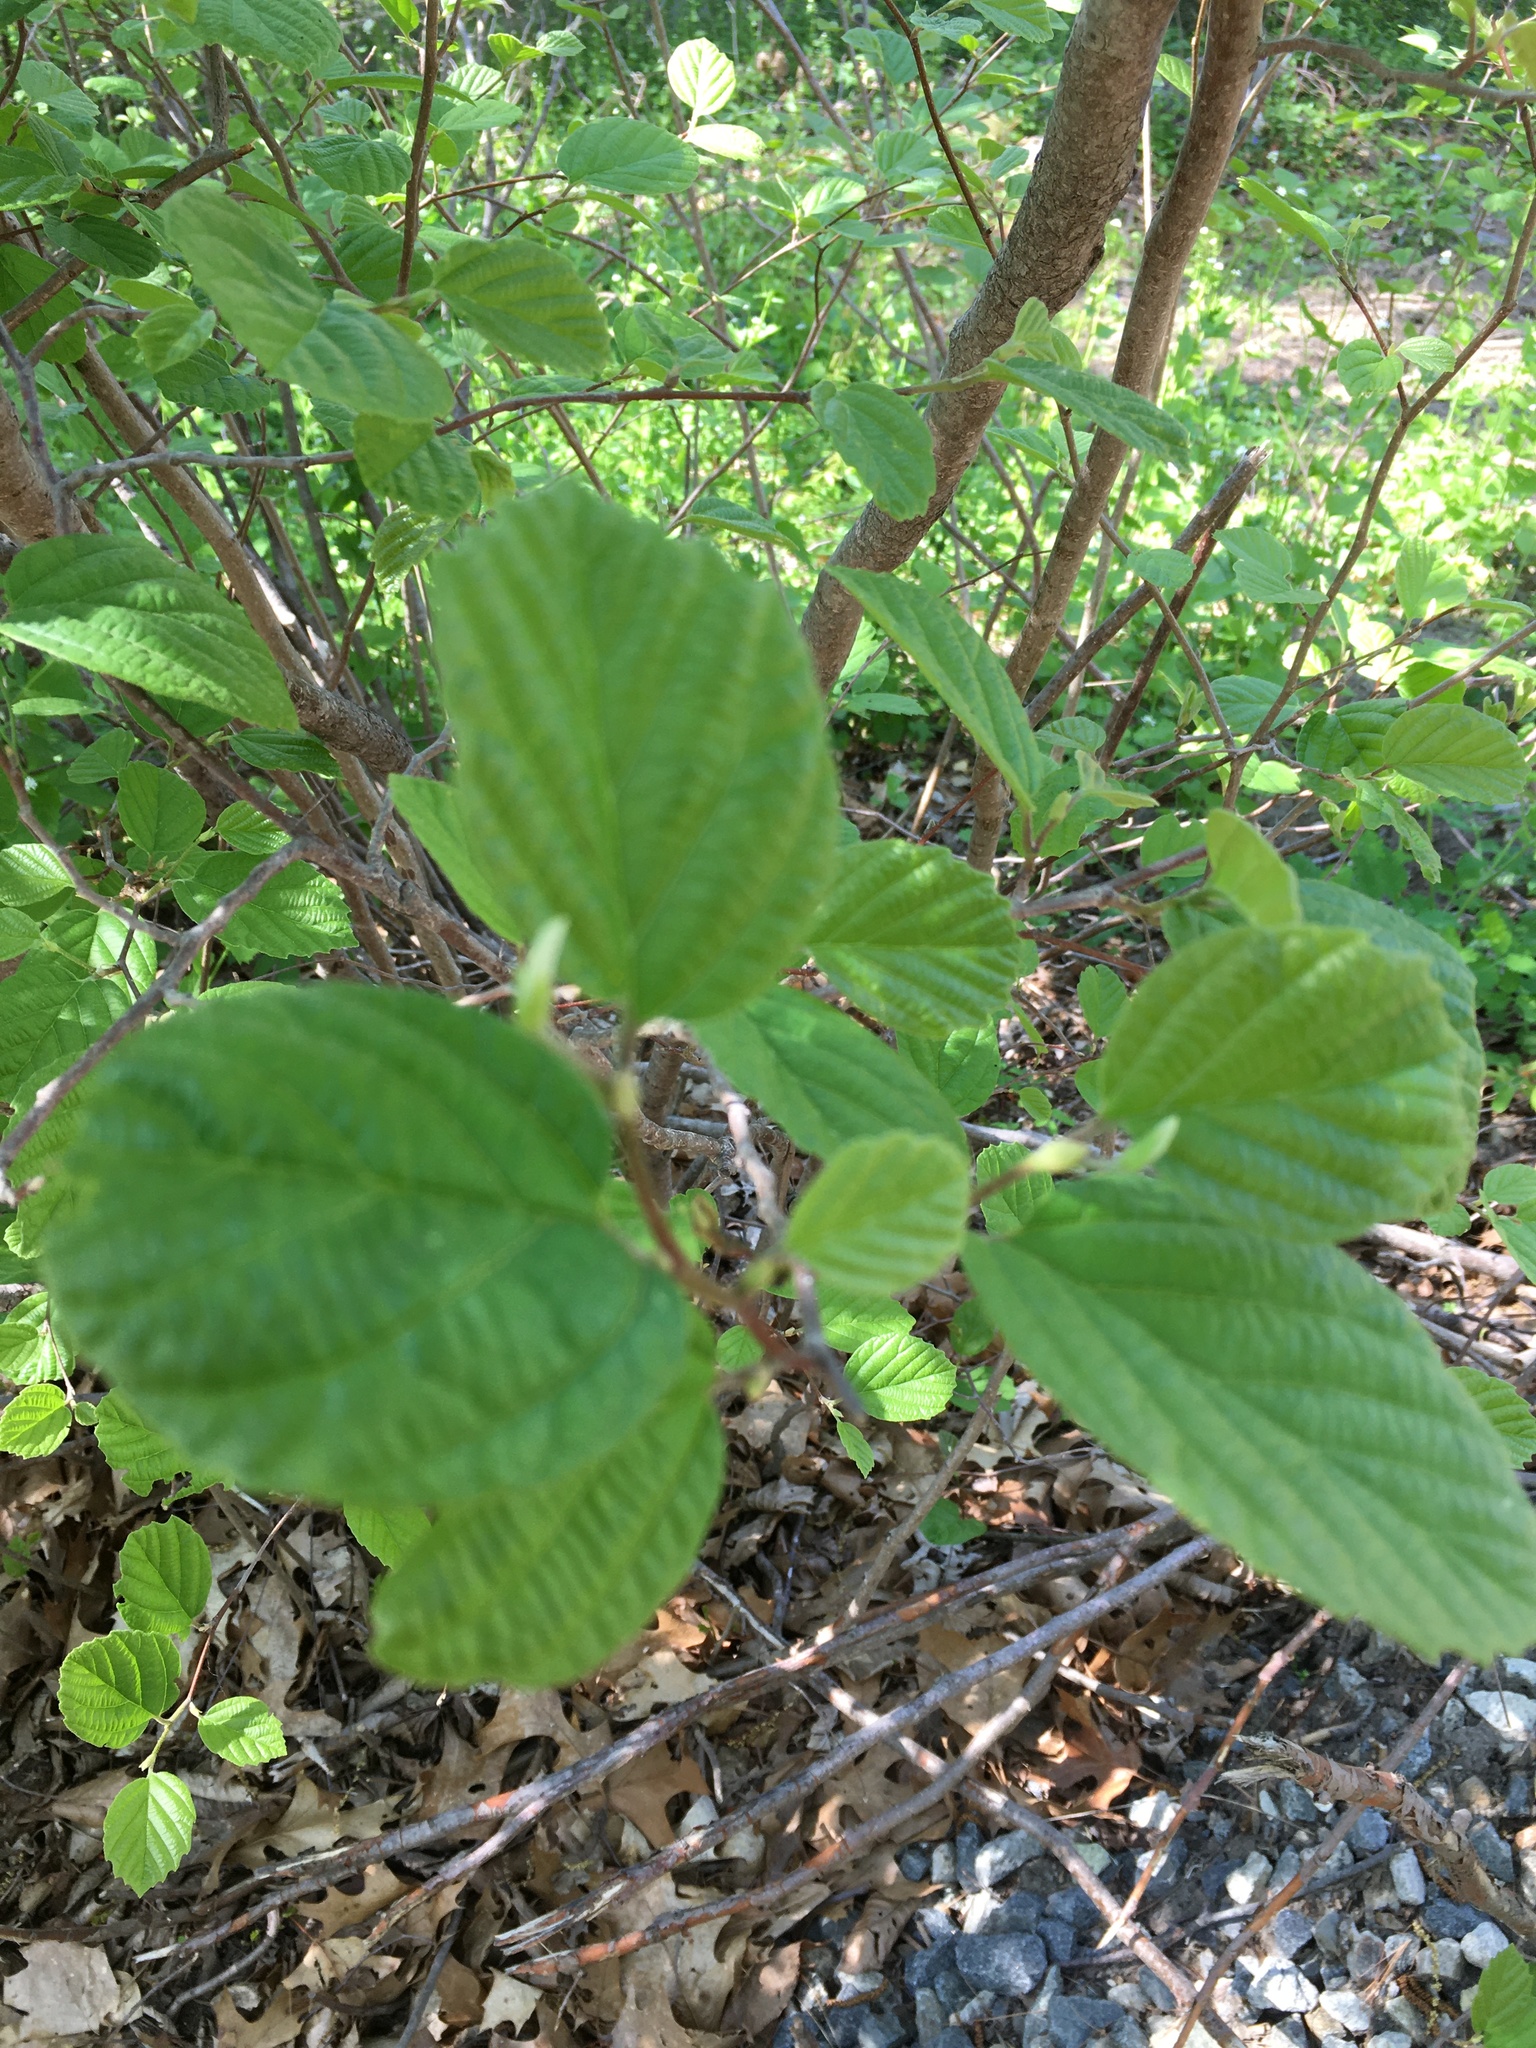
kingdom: Plantae
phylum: Tracheophyta
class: Magnoliopsida
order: Saxifragales
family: Hamamelidaceae
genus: Hamamelis
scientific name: Hamamelis virginiana
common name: Witch-hazel
